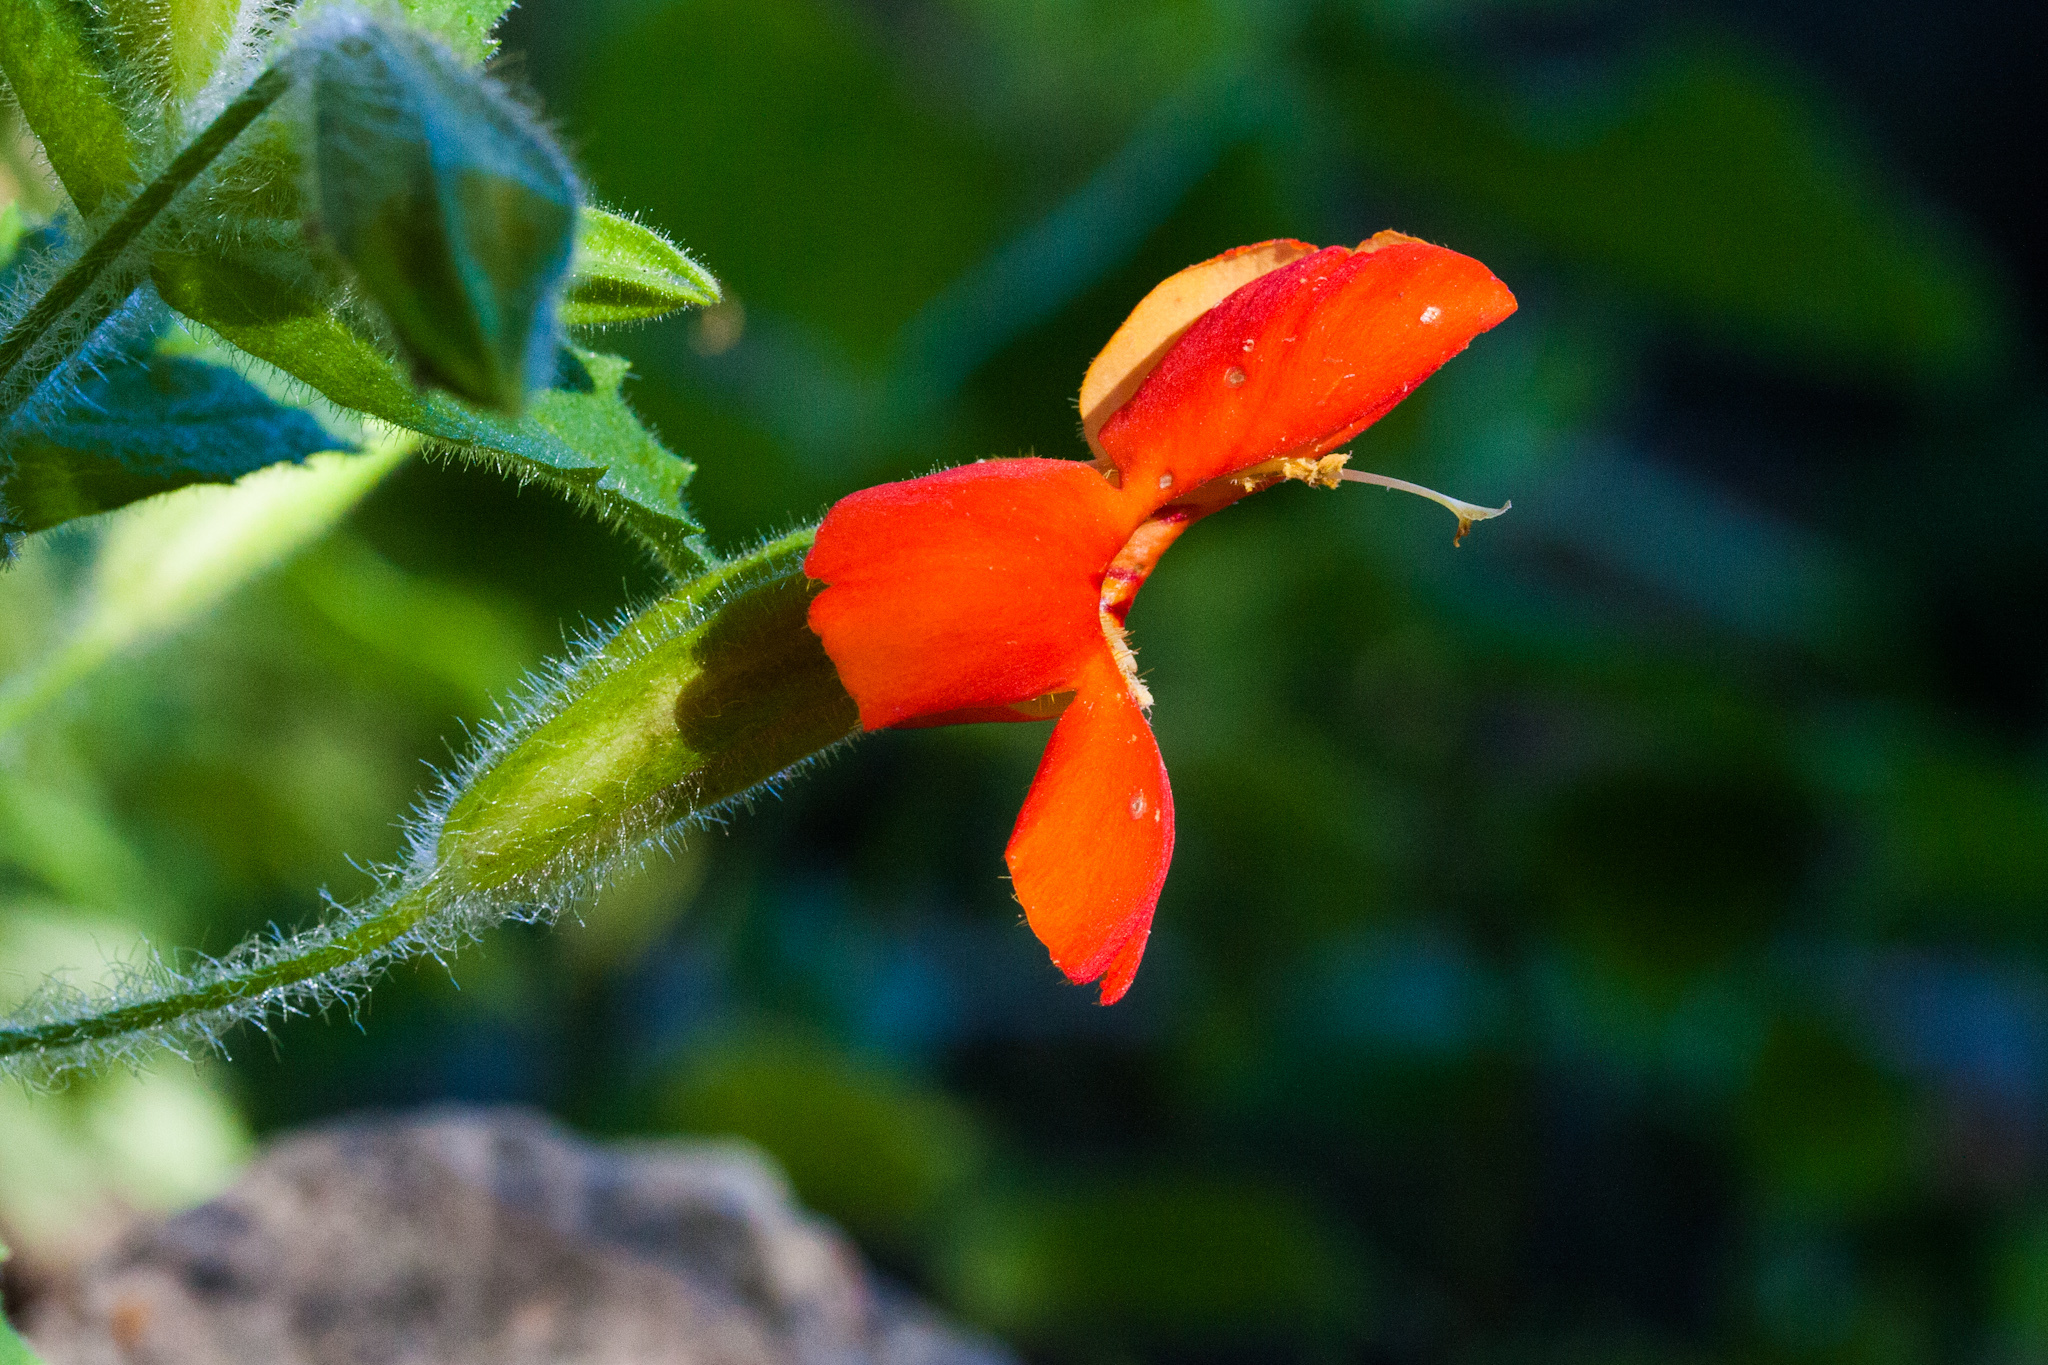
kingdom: Plantae
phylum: Tracheophyta
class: Magnoliopsida
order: Lamiales
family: Phrymaceae
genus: Erythranthe
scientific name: Erythranthe cardinalis
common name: Scarlet monkey-flower
